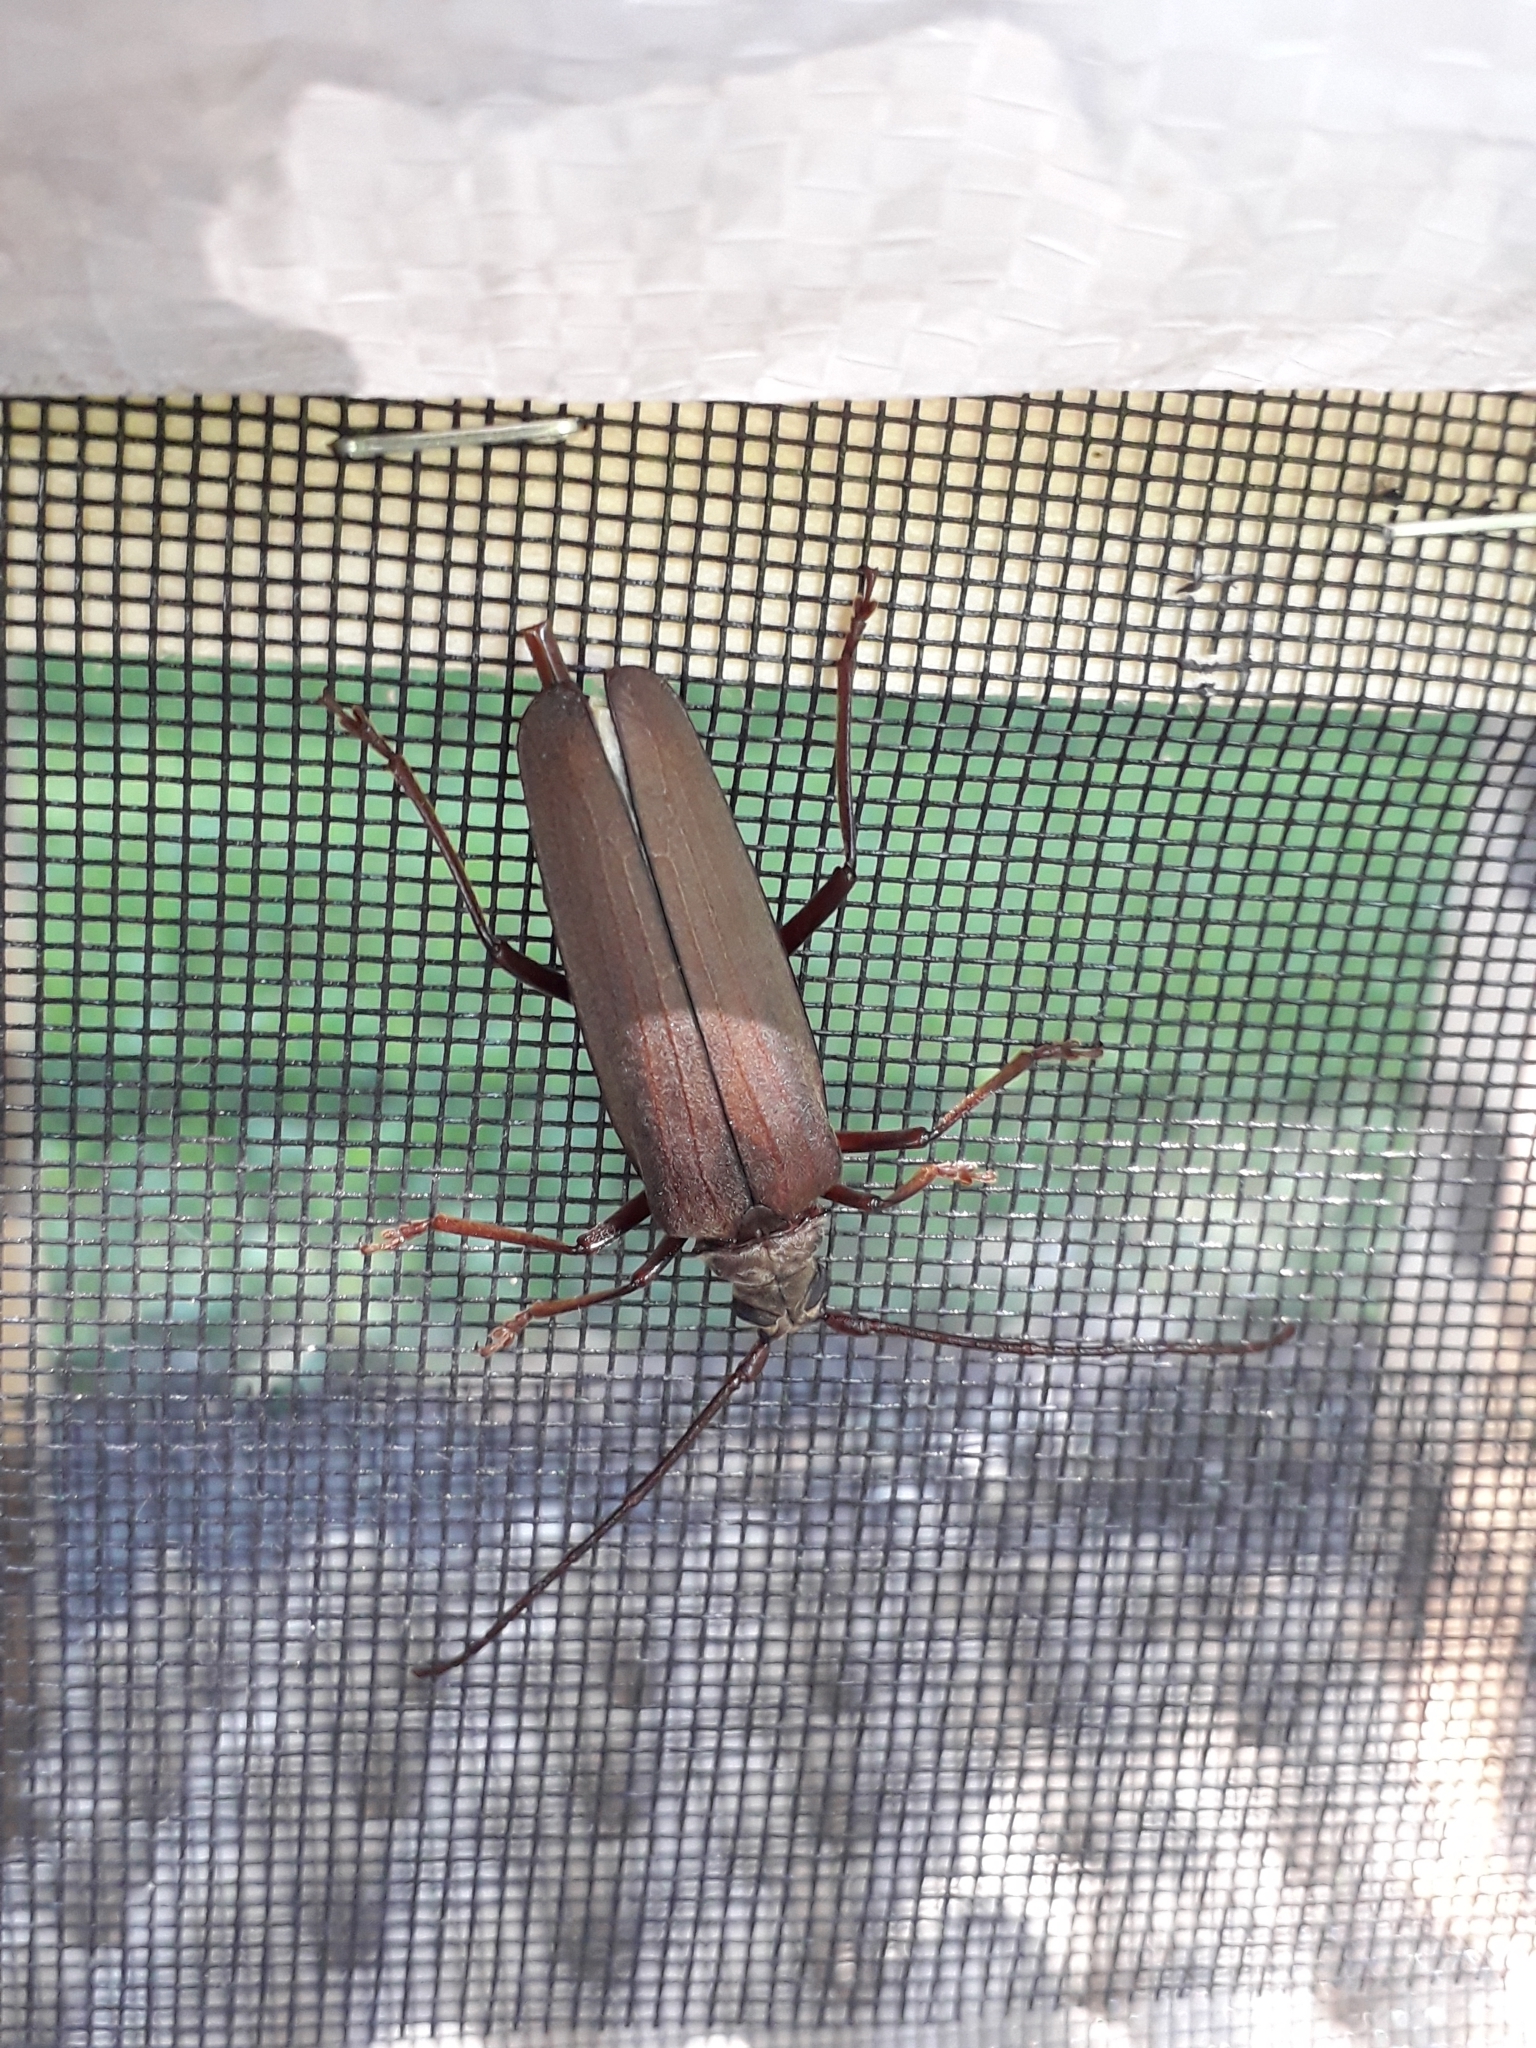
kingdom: Animalia
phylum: Arthropoda
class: Insecta
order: Coleoptera
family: Cerambycidae
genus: Aegosoma
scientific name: Aegosoma scabricorne
